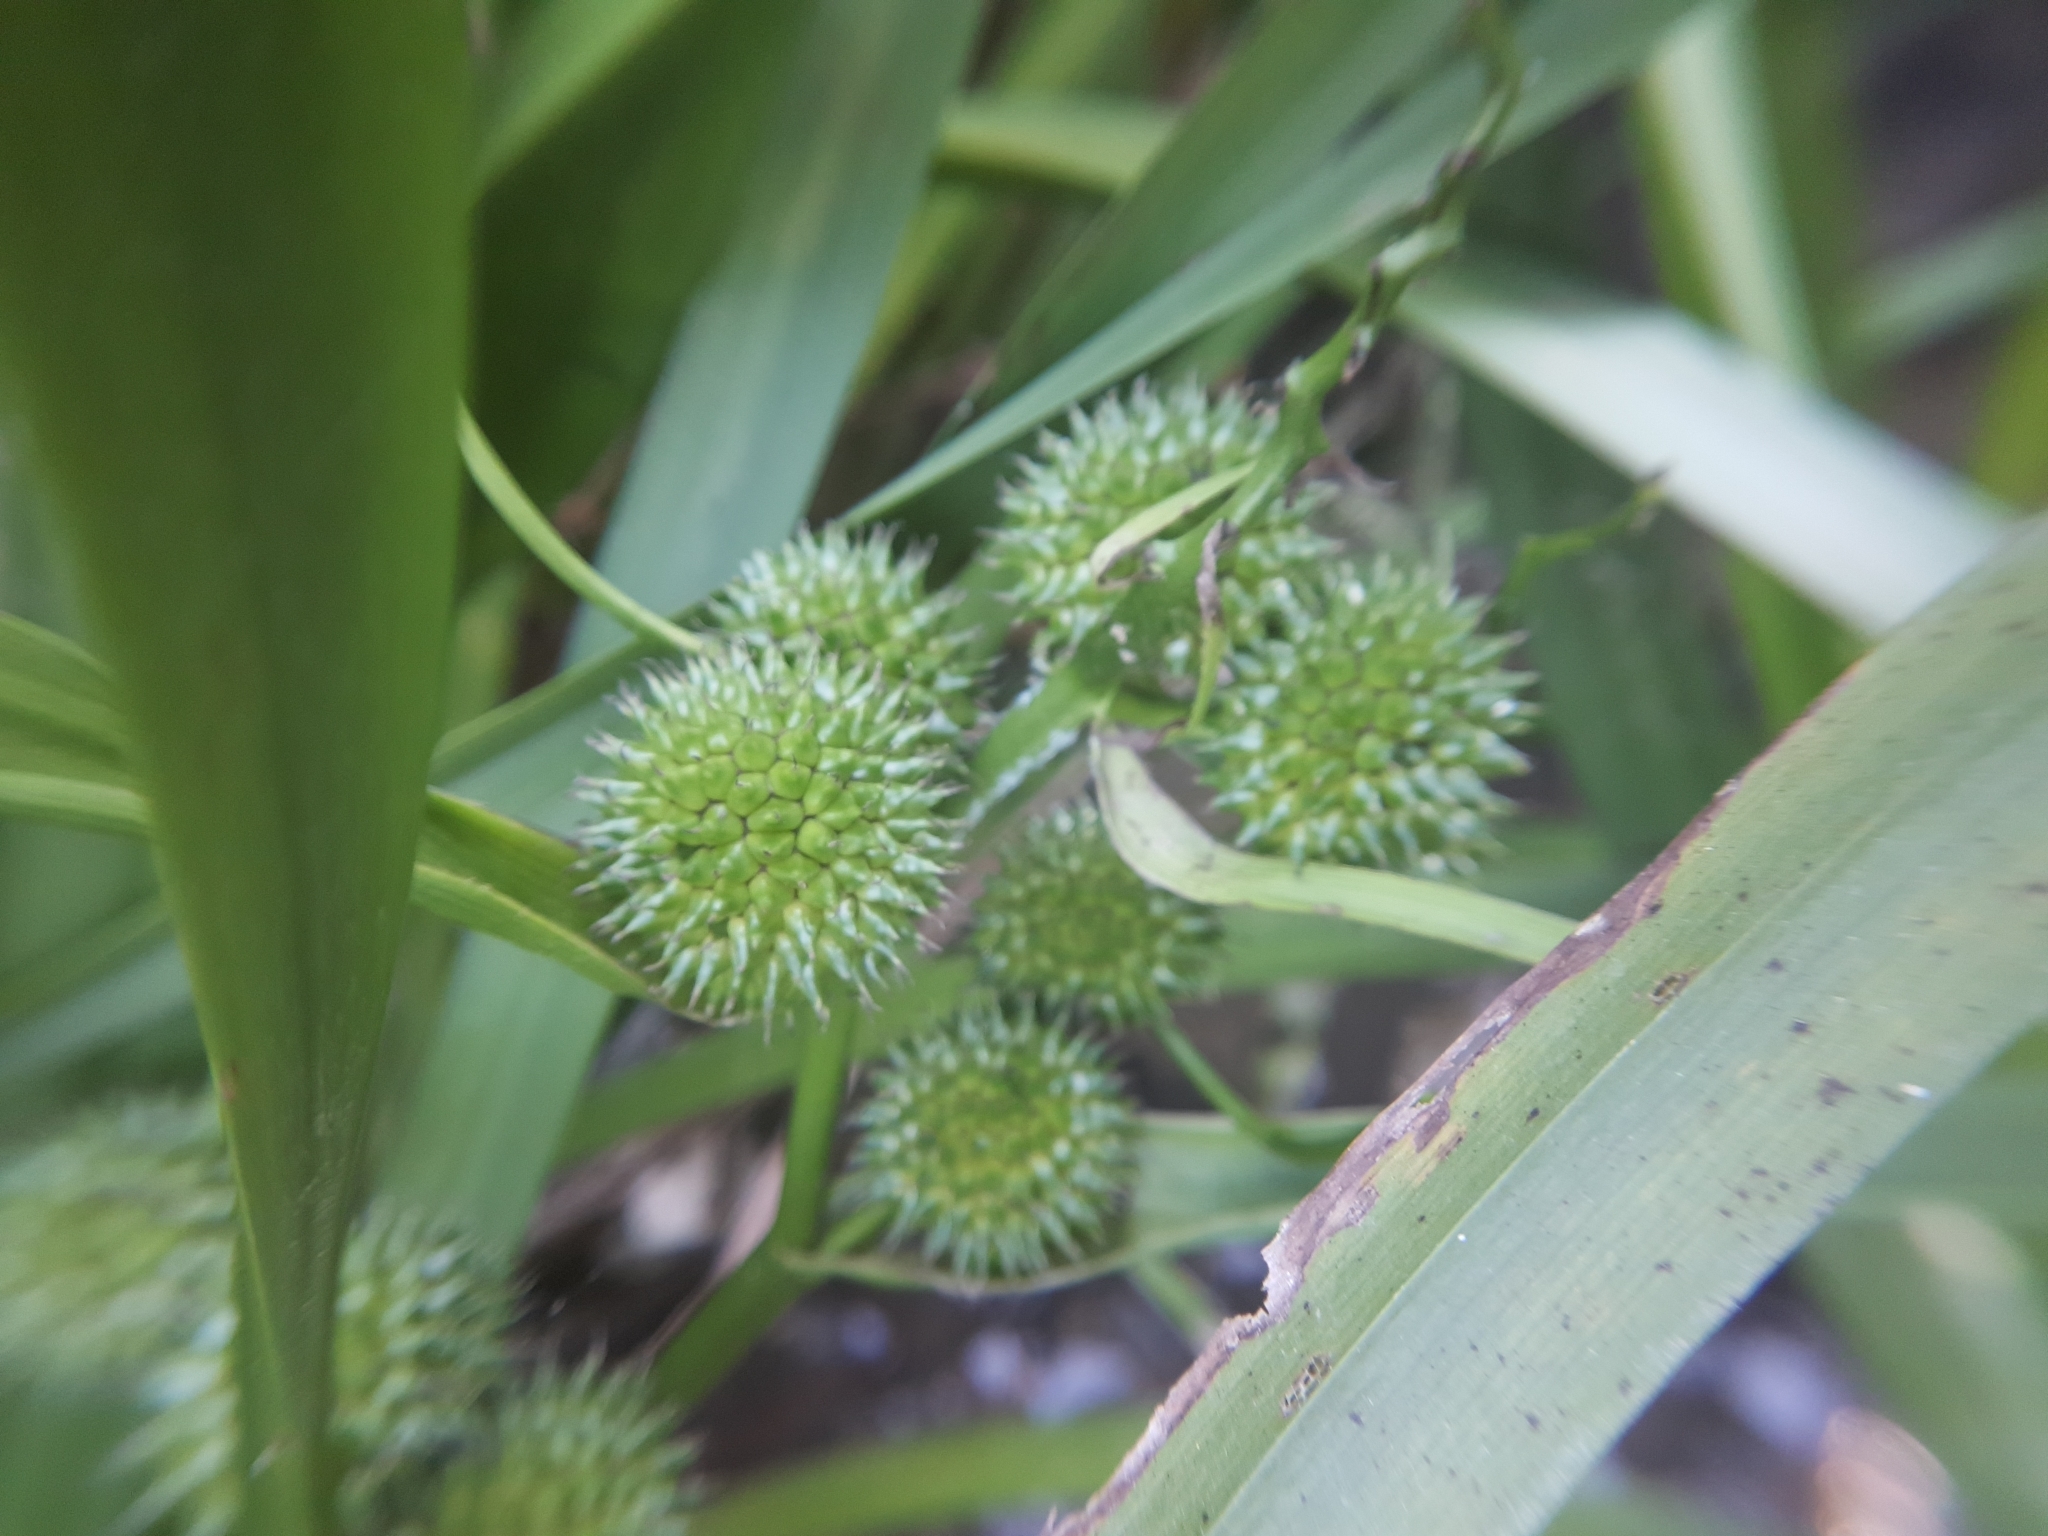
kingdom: Plantae
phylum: Tracheophyta
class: Liliopsida
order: Poales
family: Typhaceae
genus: Sparganium
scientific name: Sparganium erectum
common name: Branched bur-reed
